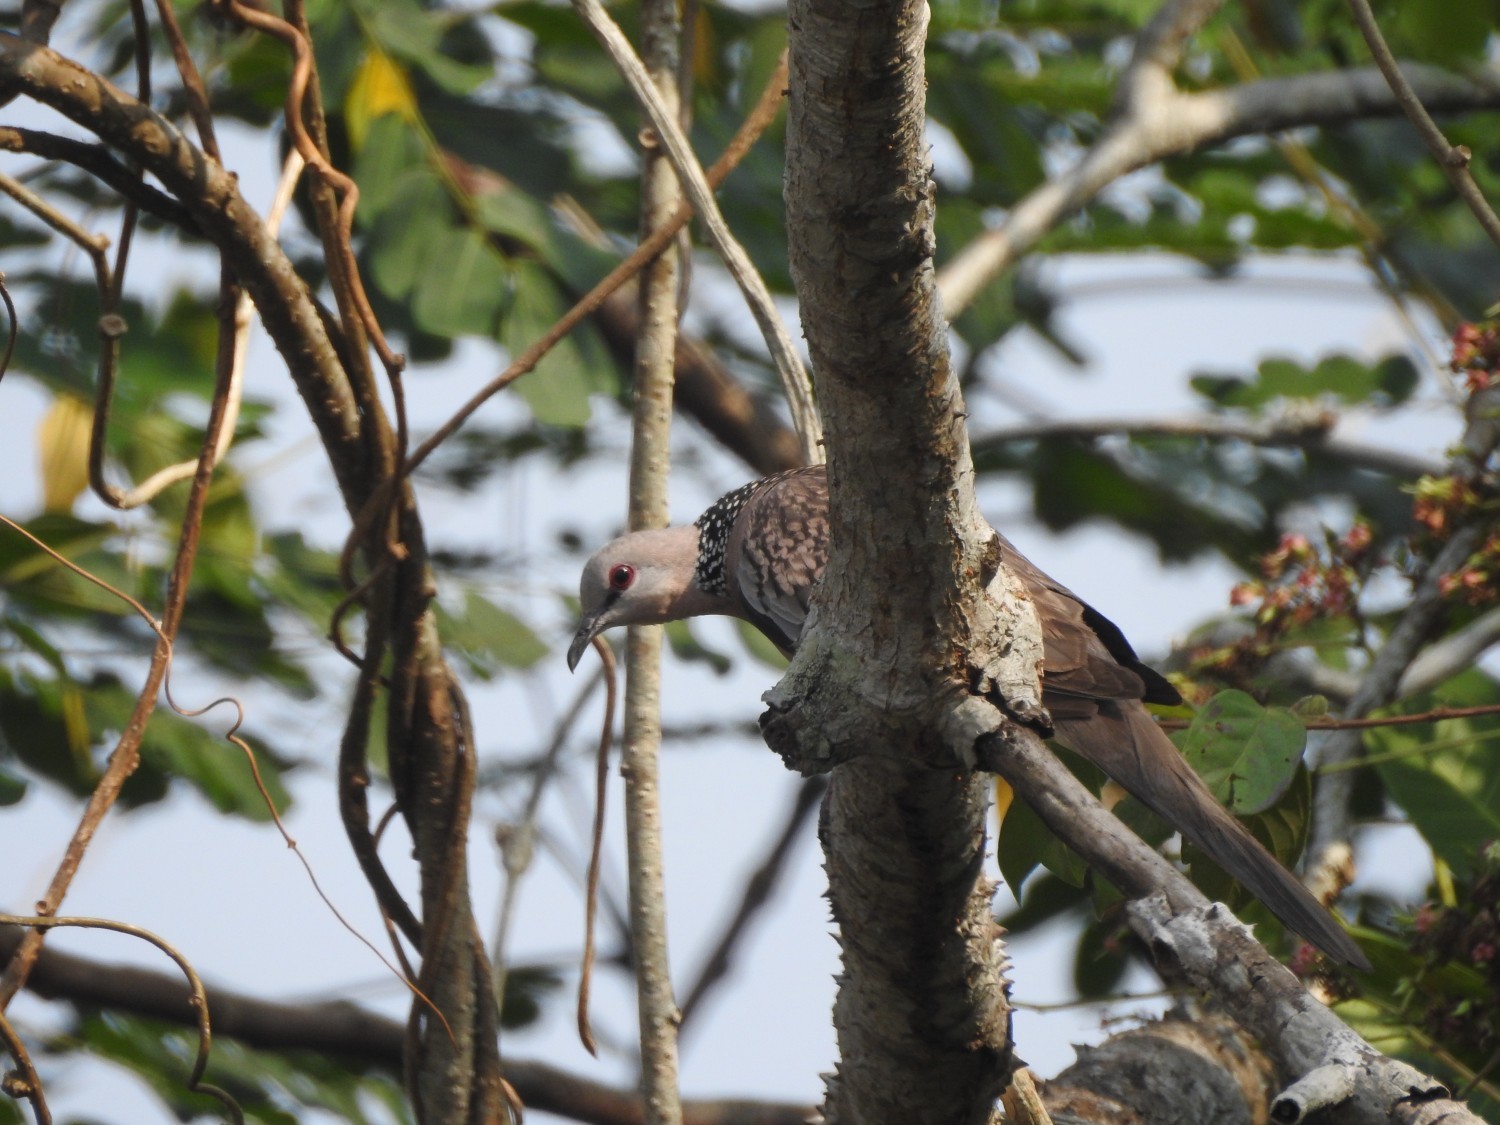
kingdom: Animalia
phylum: Chordata
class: Aves
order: Columbiformes
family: Columbidae
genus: Spilopelia
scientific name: Spilopelia chinensis
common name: Spotted dove
